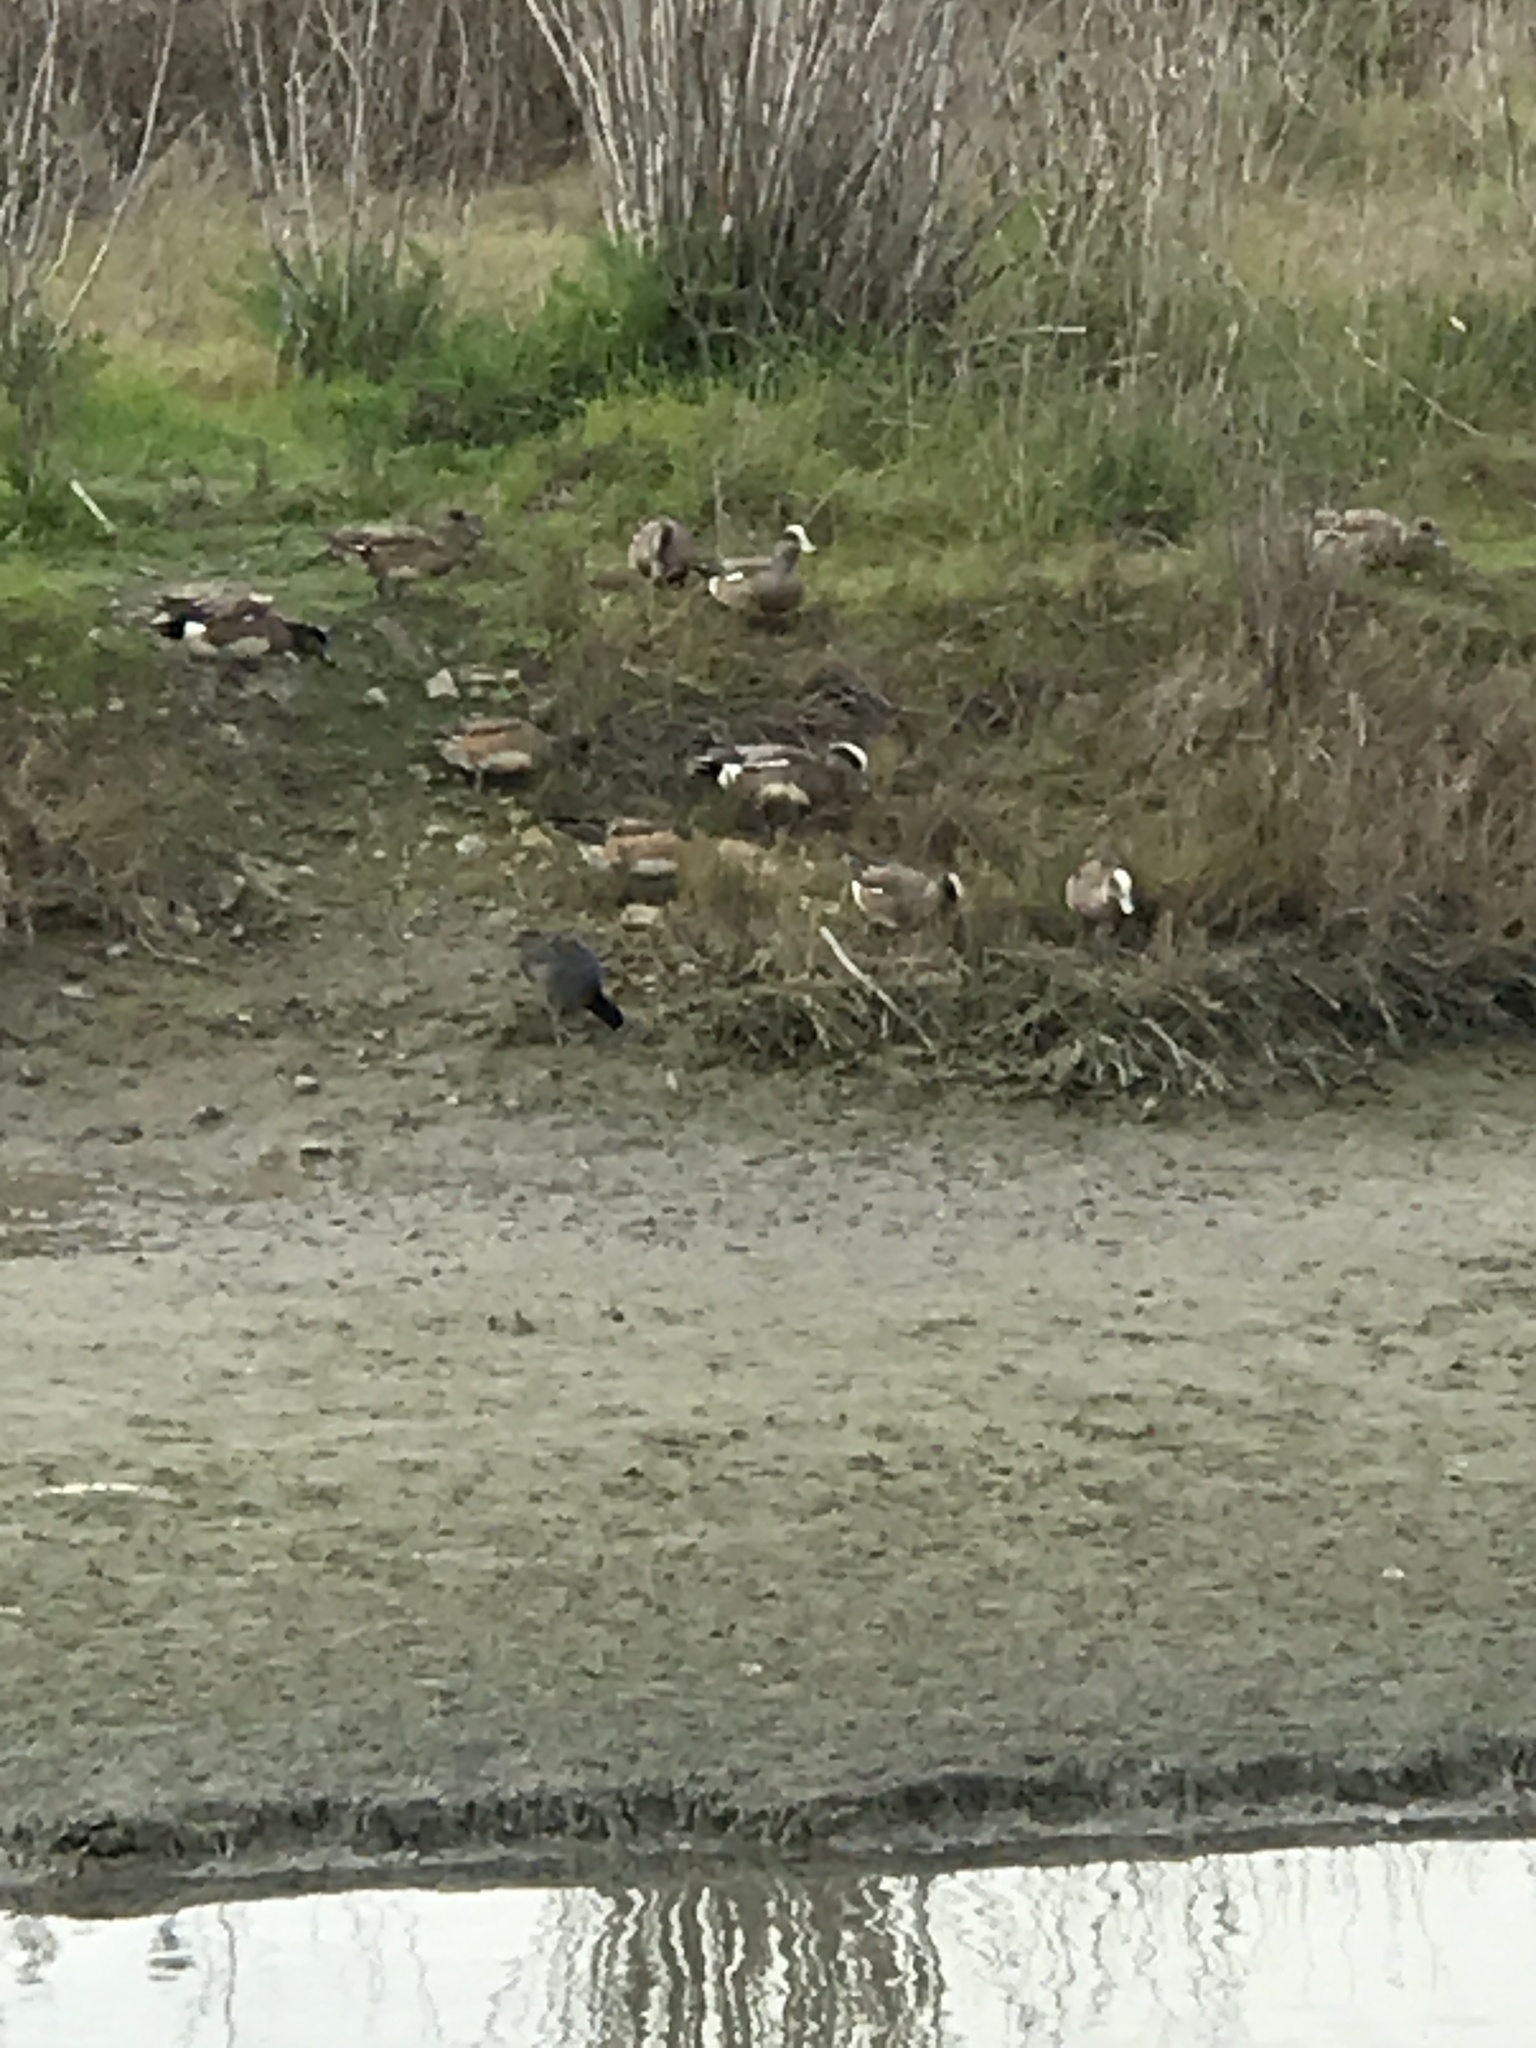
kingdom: Animalia
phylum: Chordata
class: Aves
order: Anseriformes
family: Anatidae
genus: Mareca
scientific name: Mareca americana
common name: American wigeon
